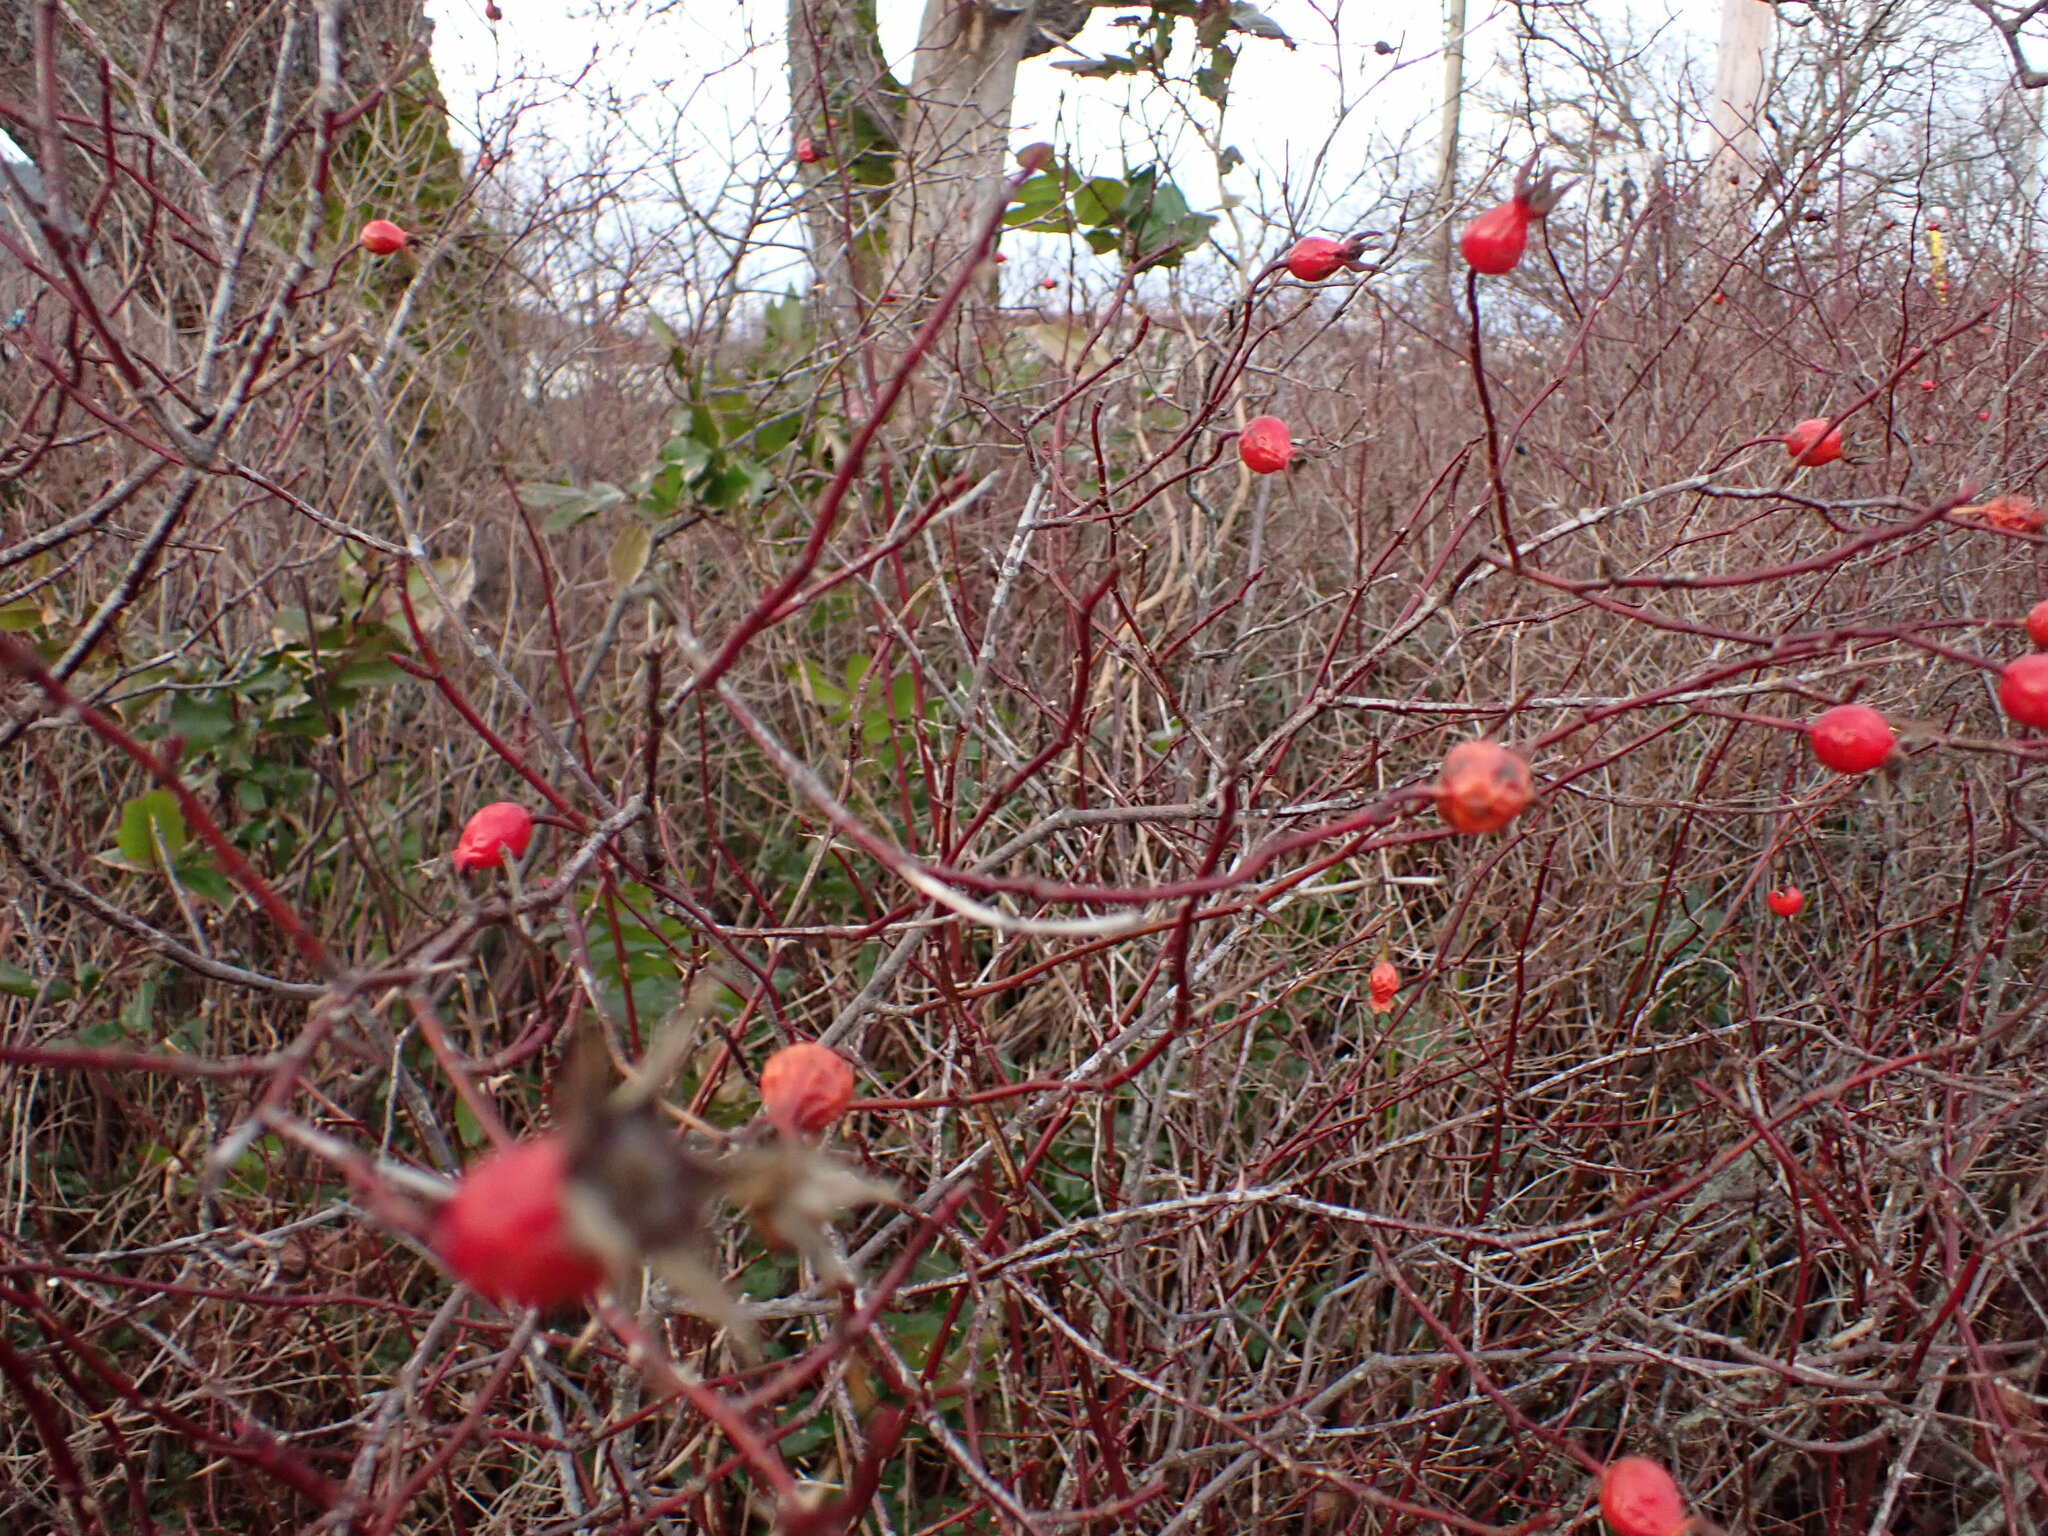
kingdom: Plantae
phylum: Tracheophyta
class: Magnoliopsida
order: Rosales
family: Rosaceae
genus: Rosa
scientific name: Rosa nutkana
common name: Nootka rose
